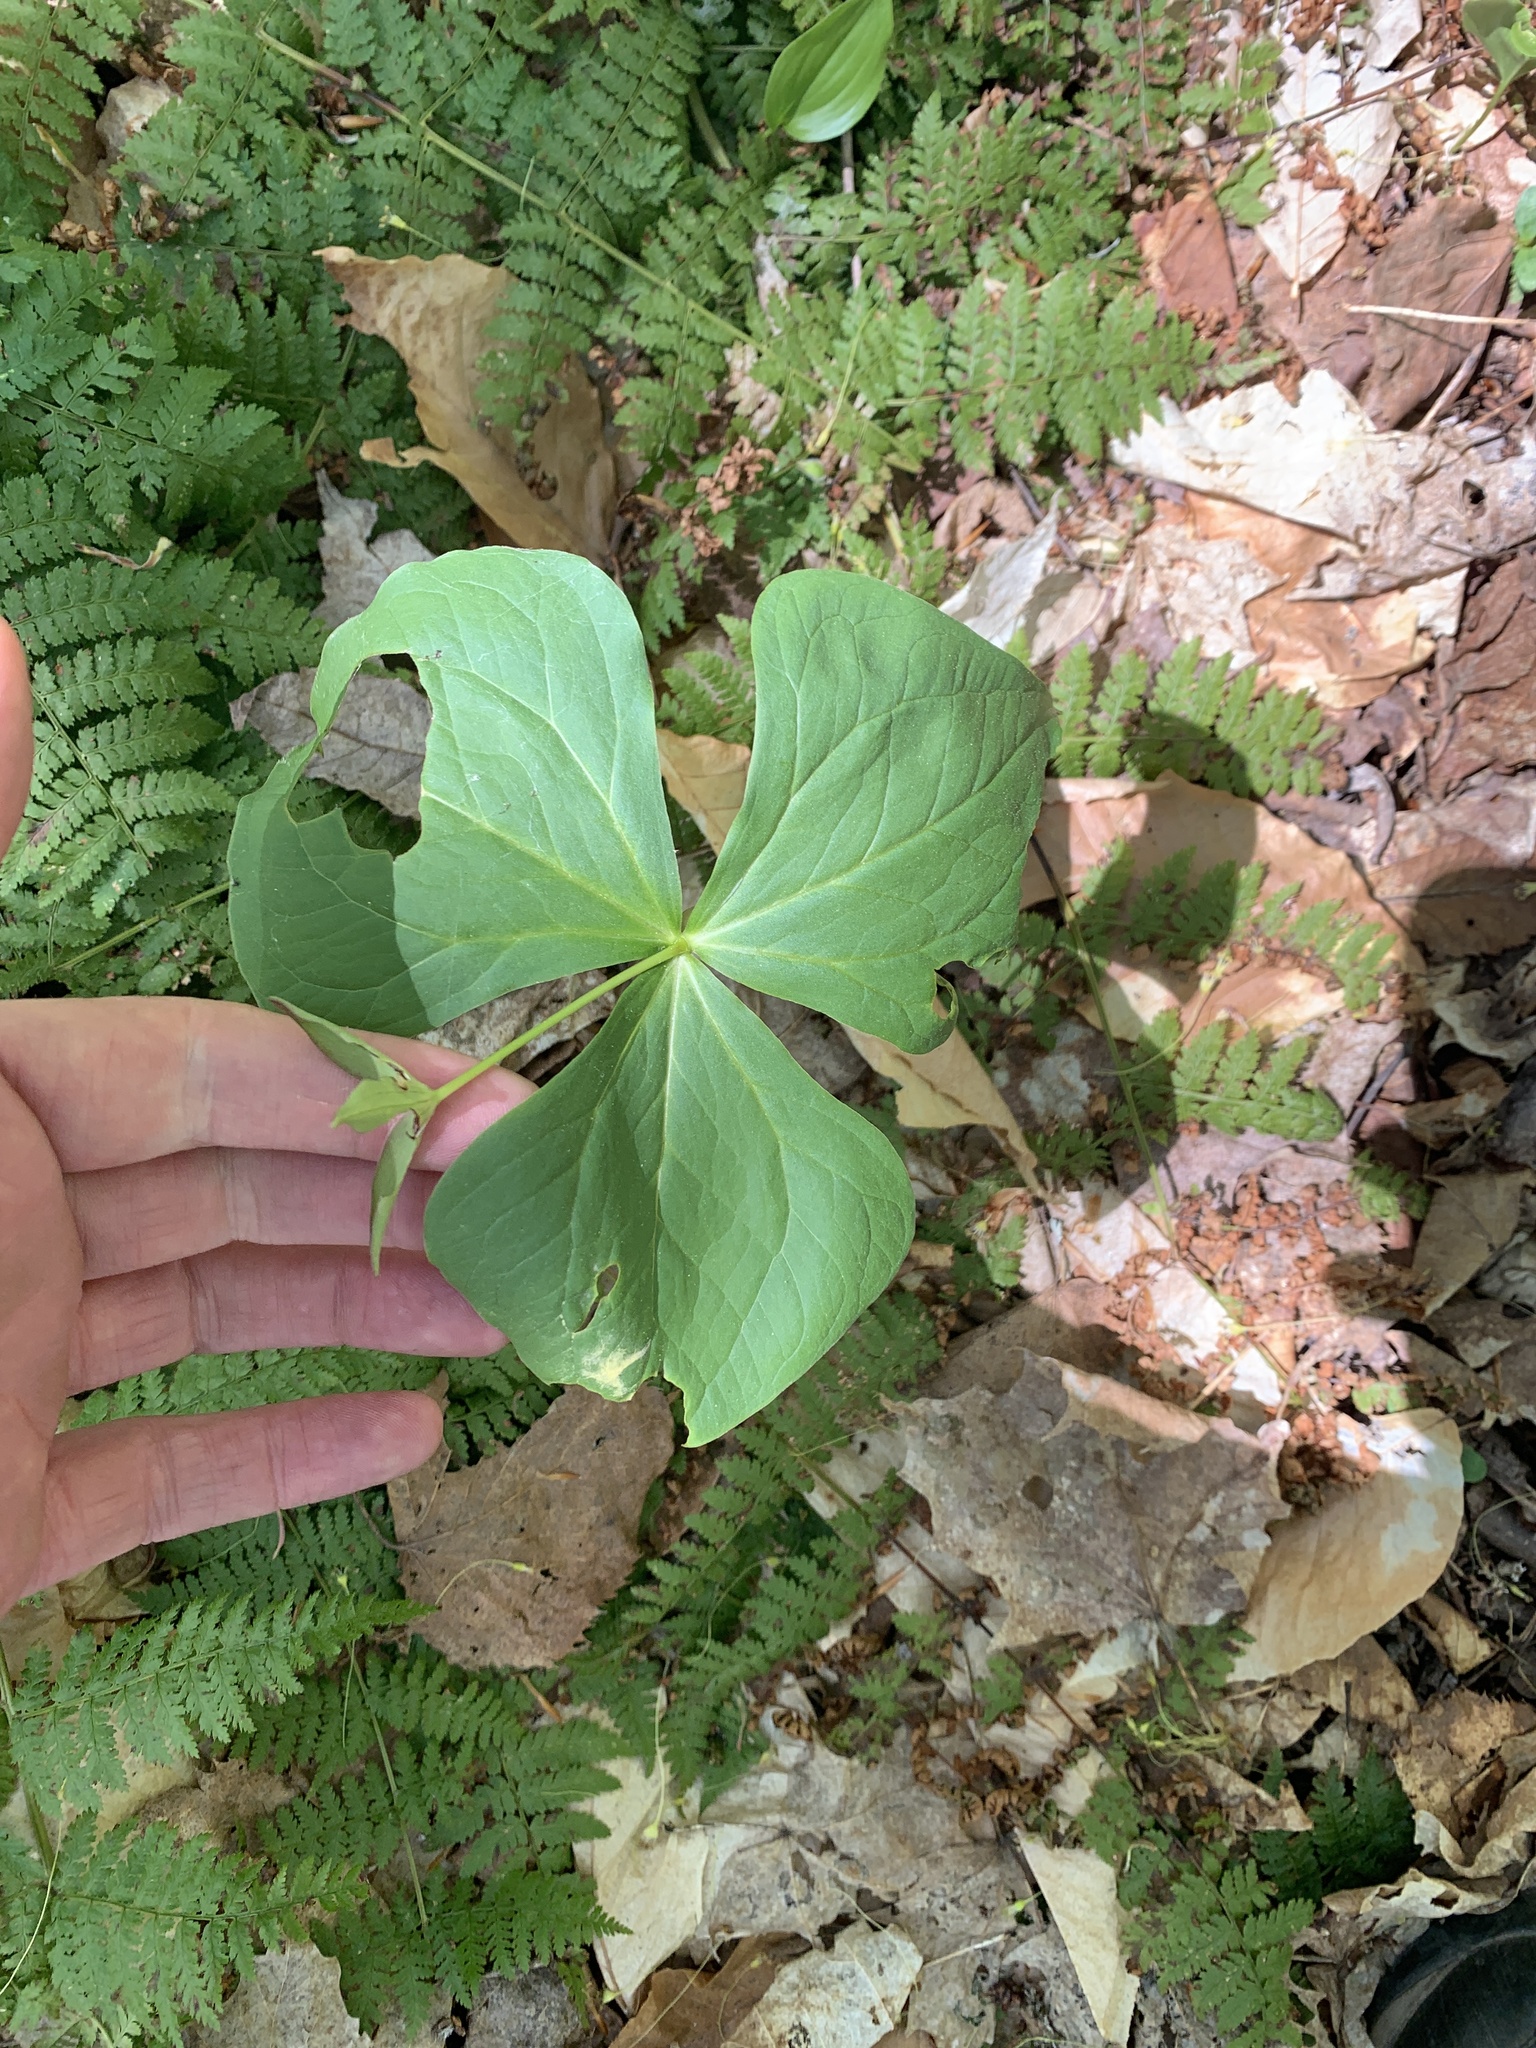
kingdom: Plantae
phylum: Tracheophyta
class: Liliopsida
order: Liliales
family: Melanthiaceae
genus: Trillium
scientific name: Trillium erectum
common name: Purple trillium
